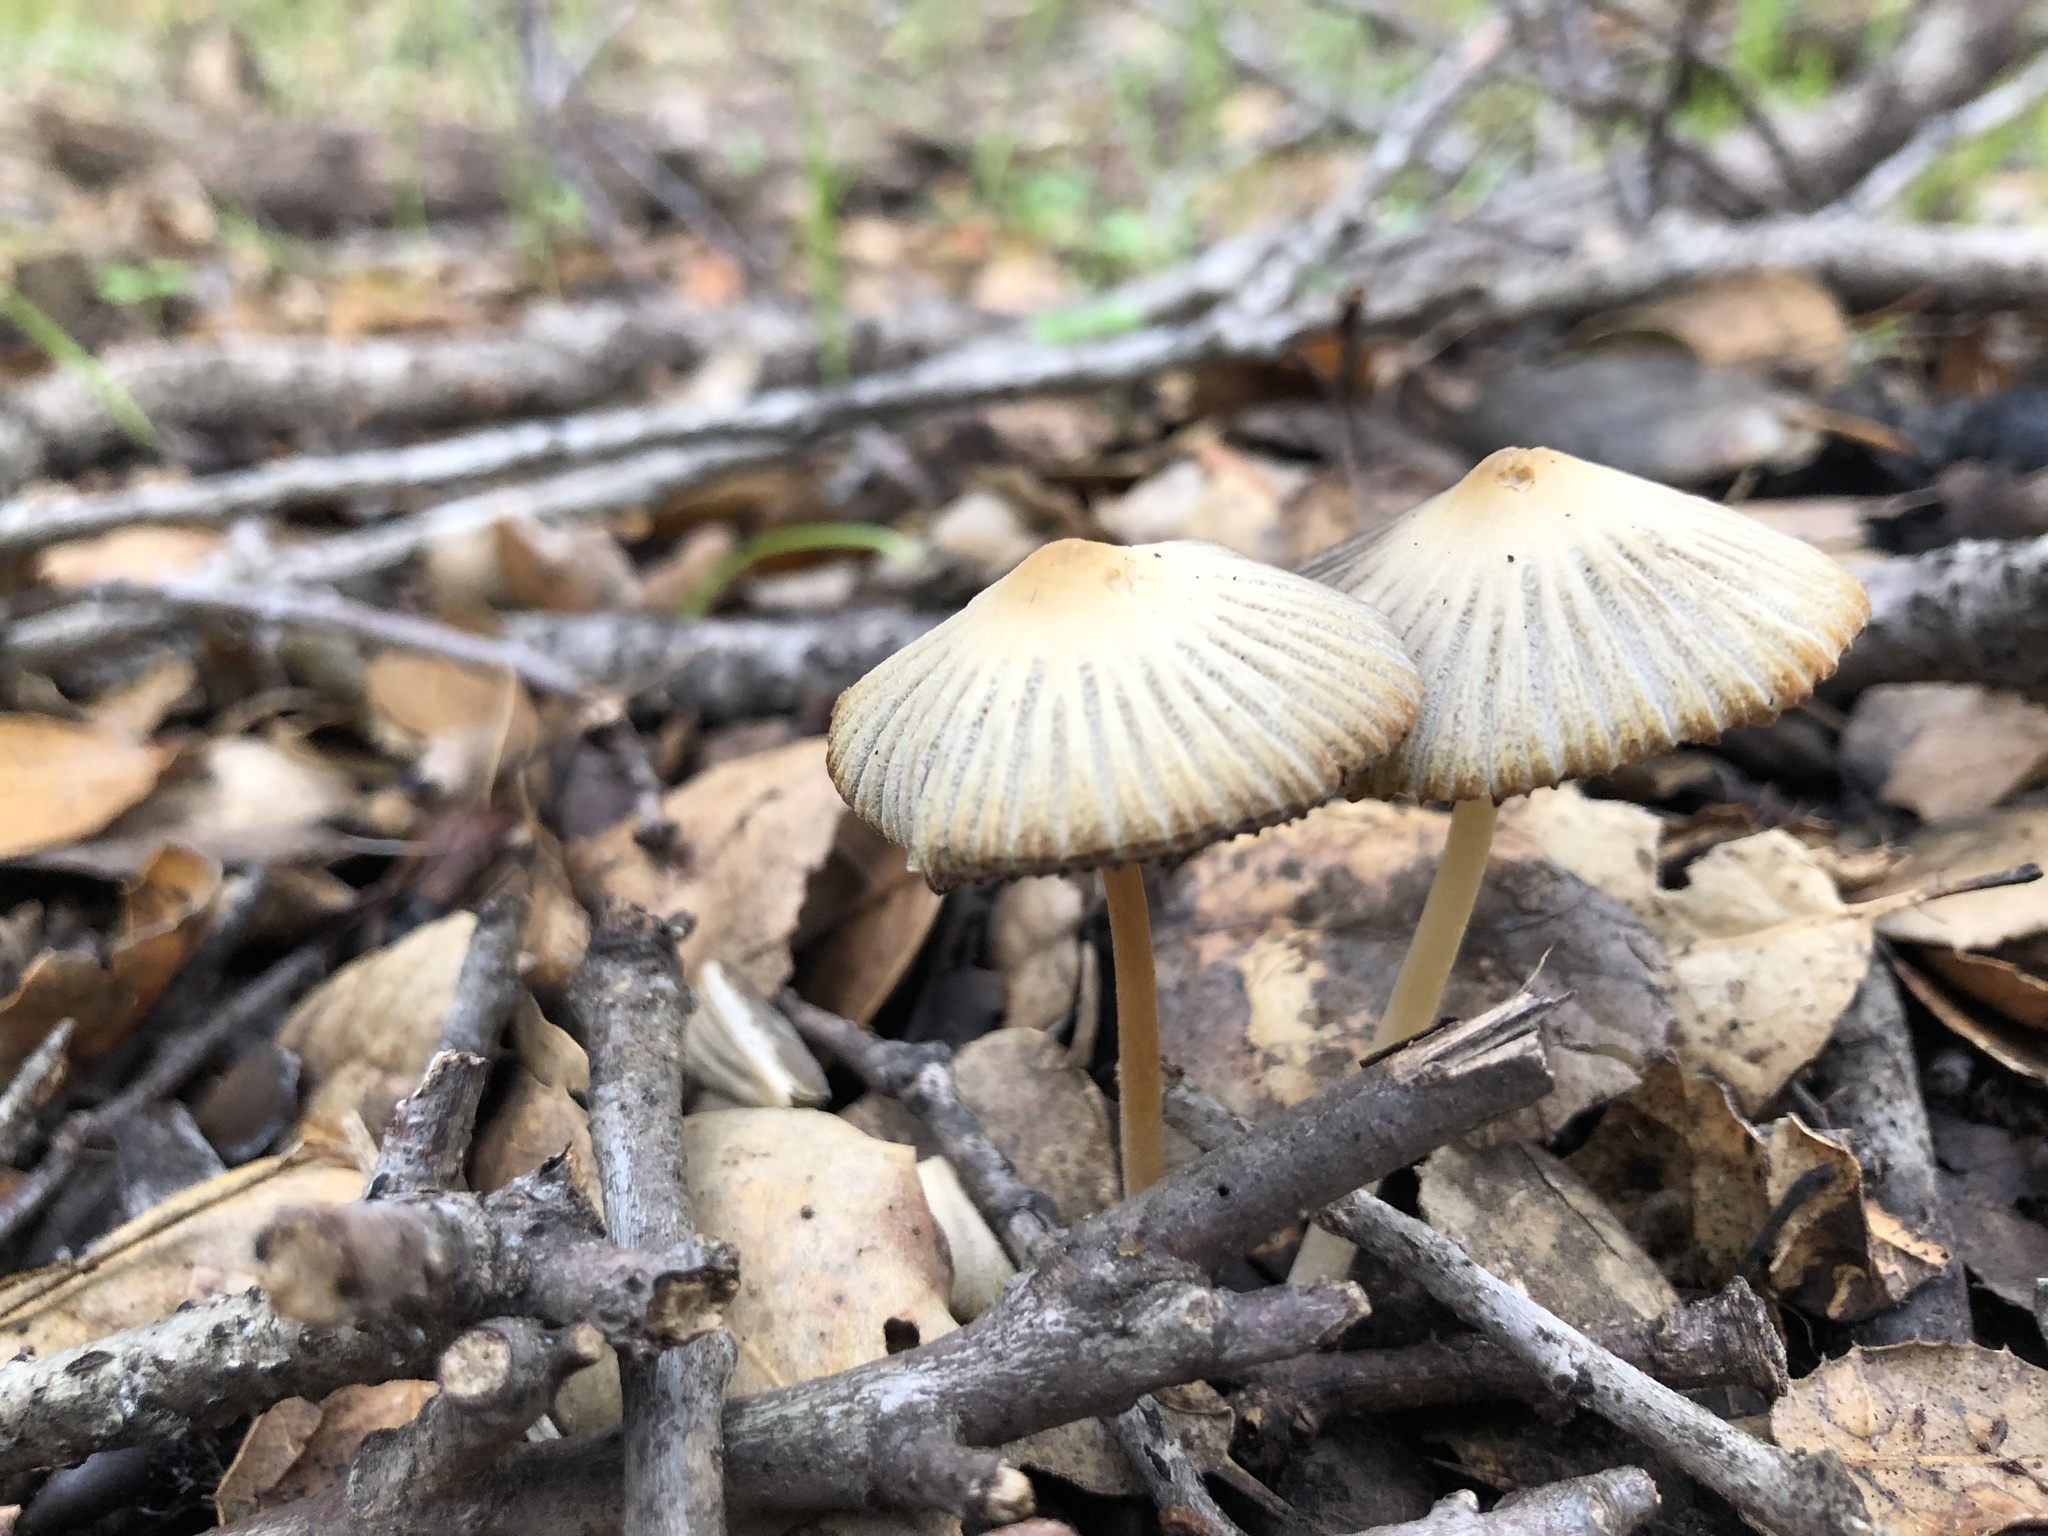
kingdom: Fungi
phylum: Basidiomycota
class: Agaricomycetes
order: Agaricales
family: Psathyrellaceae
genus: Tulosesus
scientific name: Tulosesus impatiens
